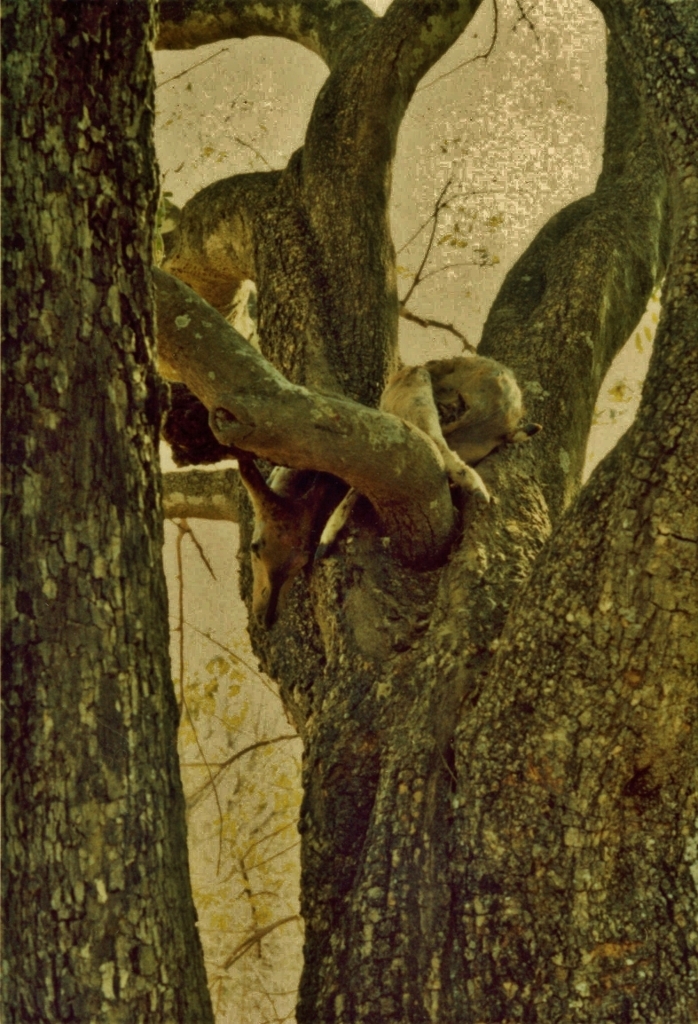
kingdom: Animalia
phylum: Chordata
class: Mammalia
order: Carnivora
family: Felidae
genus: Panthera
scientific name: Panthera pardus
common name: Leopard
